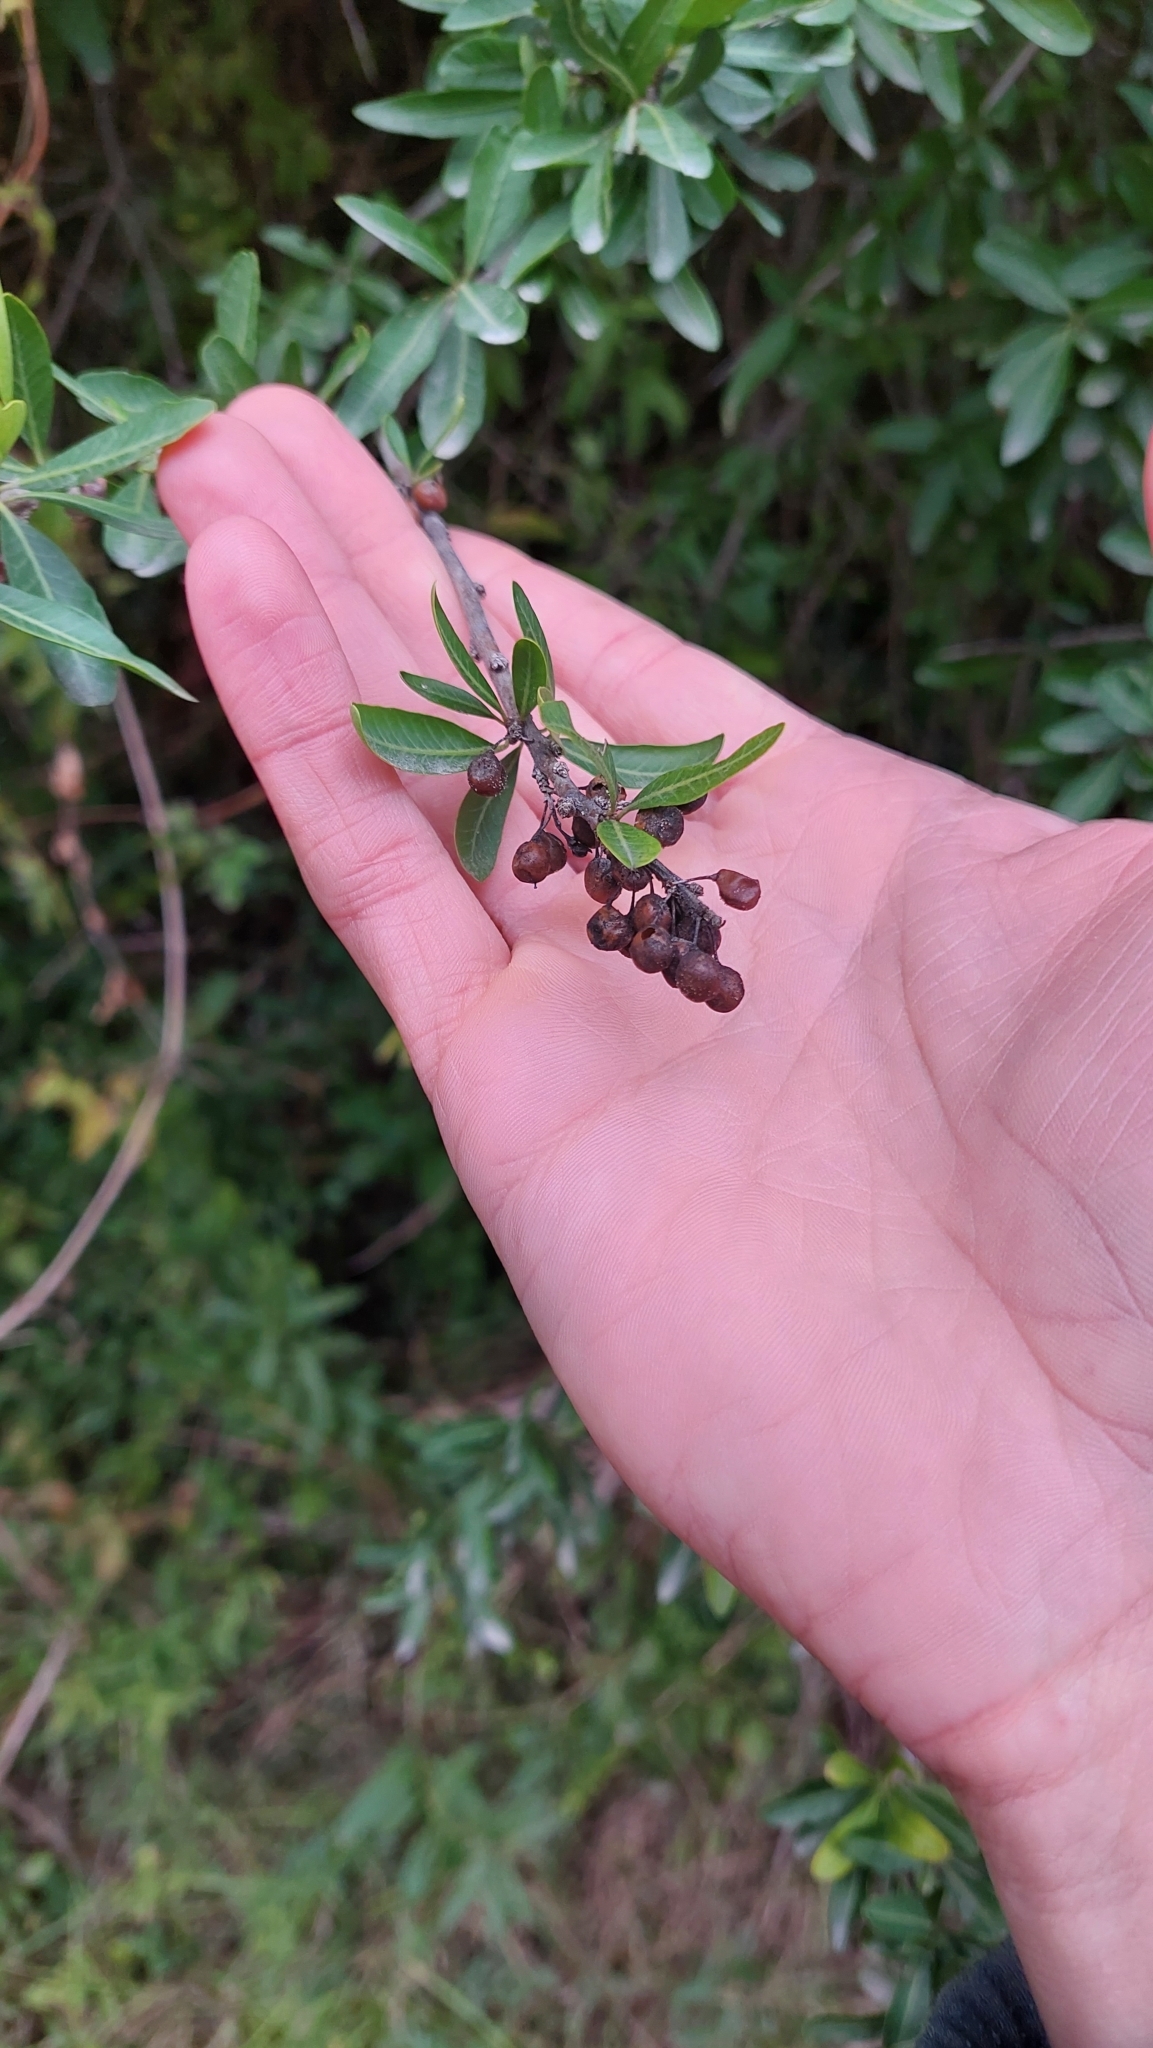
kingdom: Plantae
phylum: Tracheophyta
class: Magnoliopsida
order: Sapindales
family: Anacardiaceae
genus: Schinus
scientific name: Schinus longifolia
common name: Longleaf peppertree
